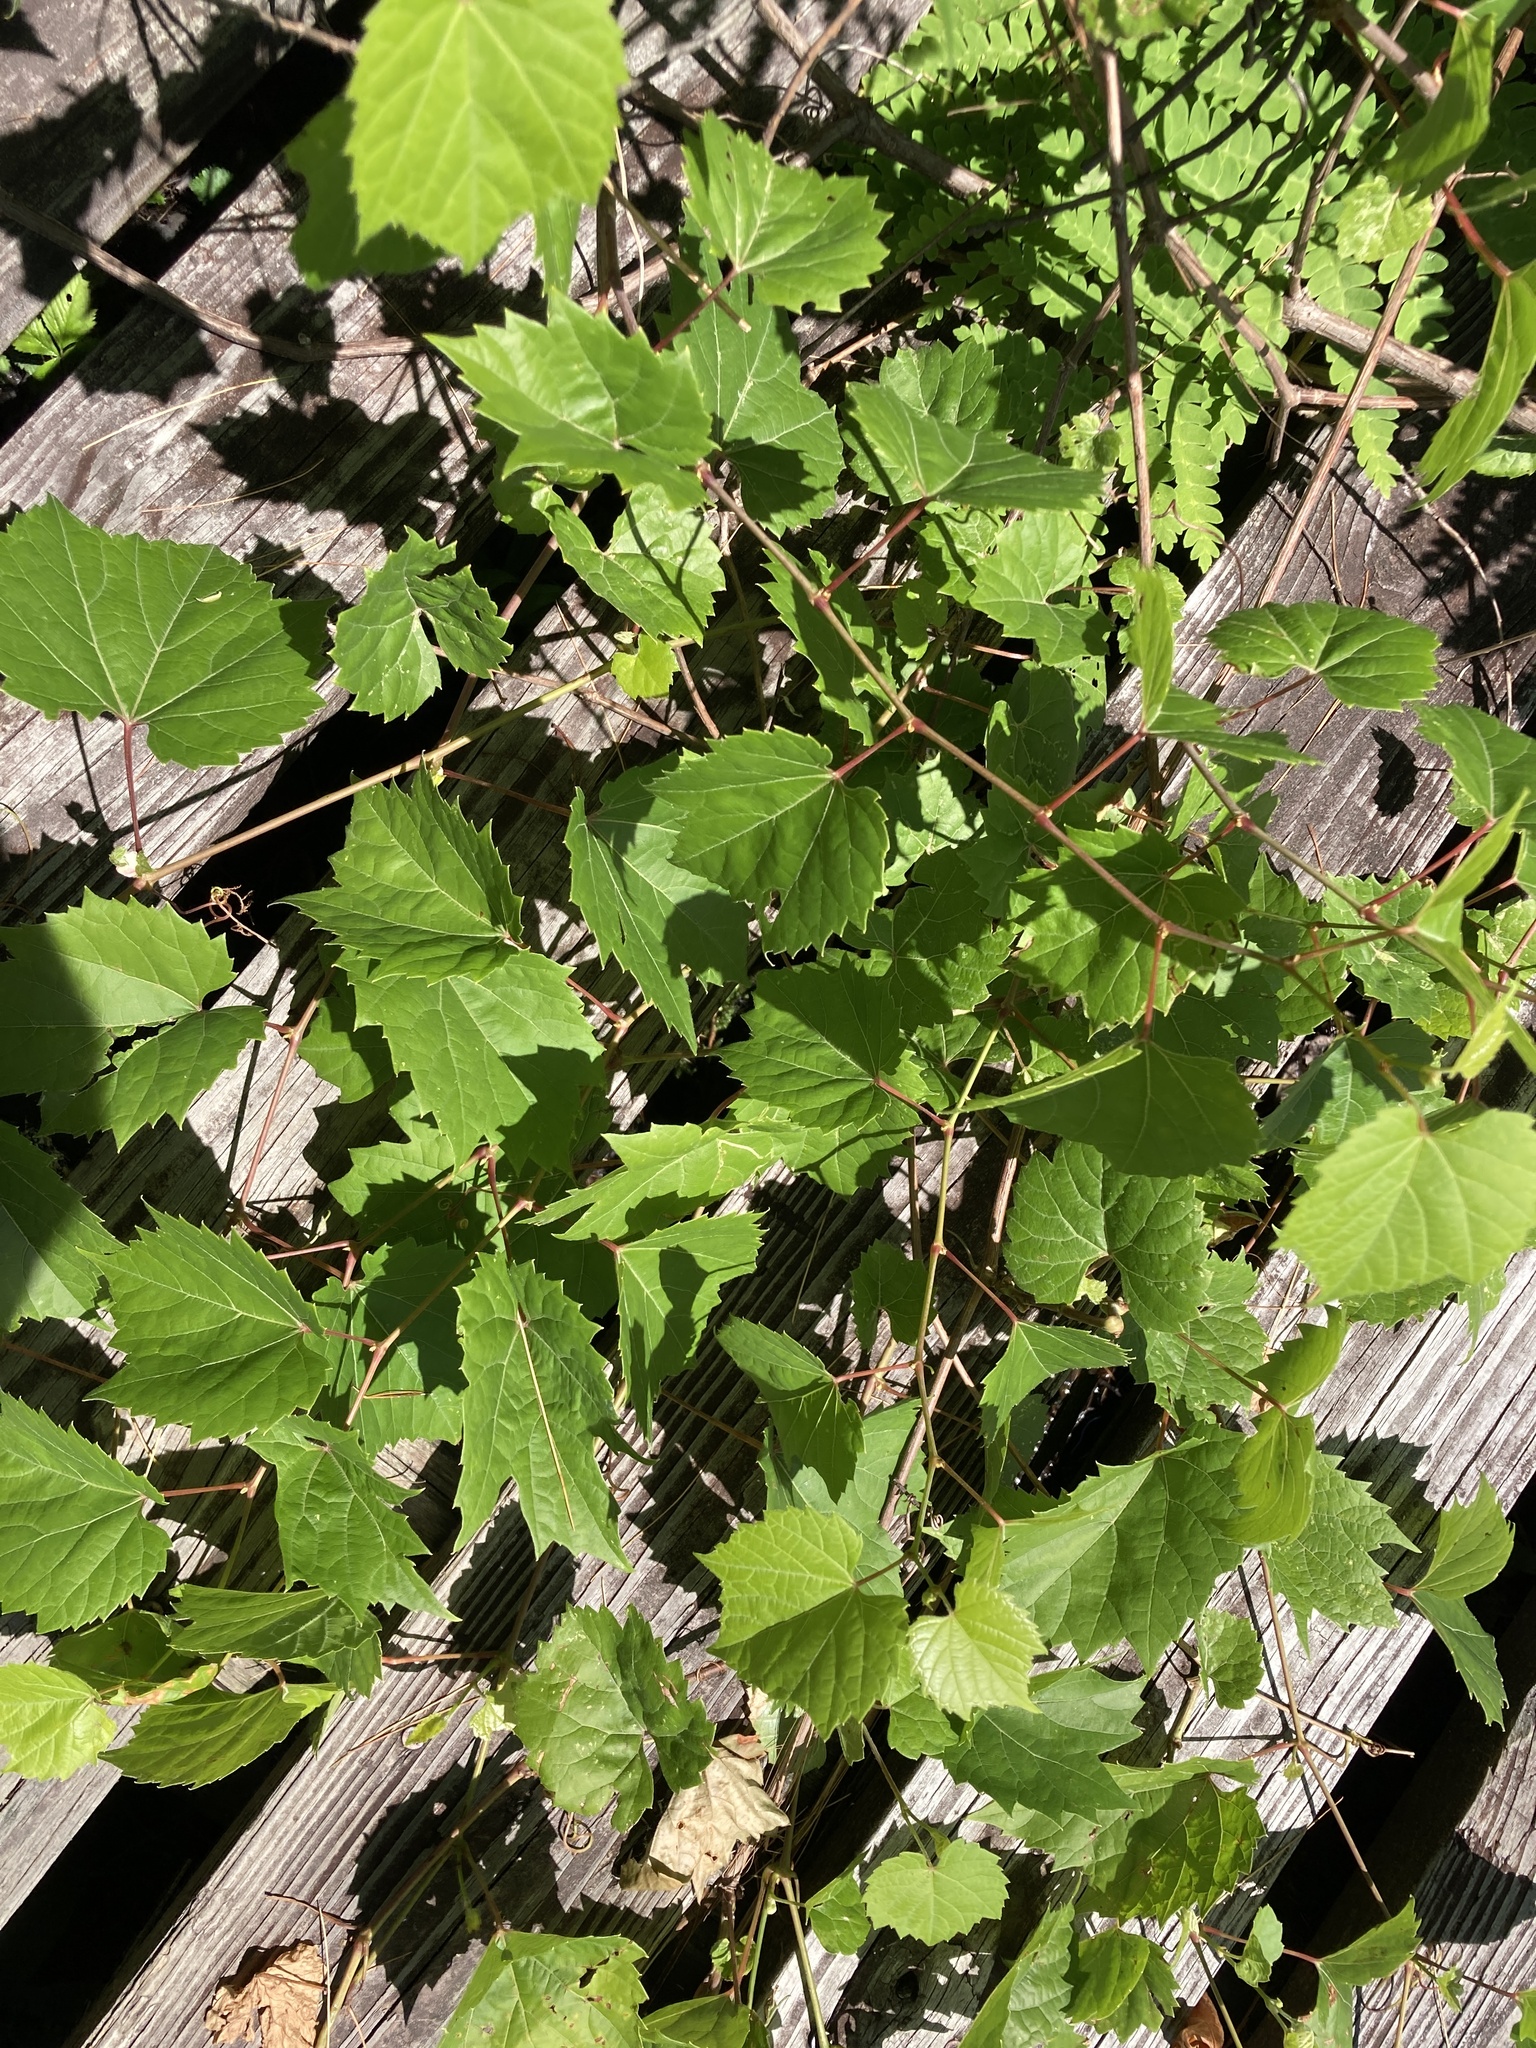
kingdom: Plantae
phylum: Tracheophyta
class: Magnoliopsida
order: Vitales
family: Vitaceae
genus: Vitis
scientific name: Vitis riparia
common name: Frost grape
